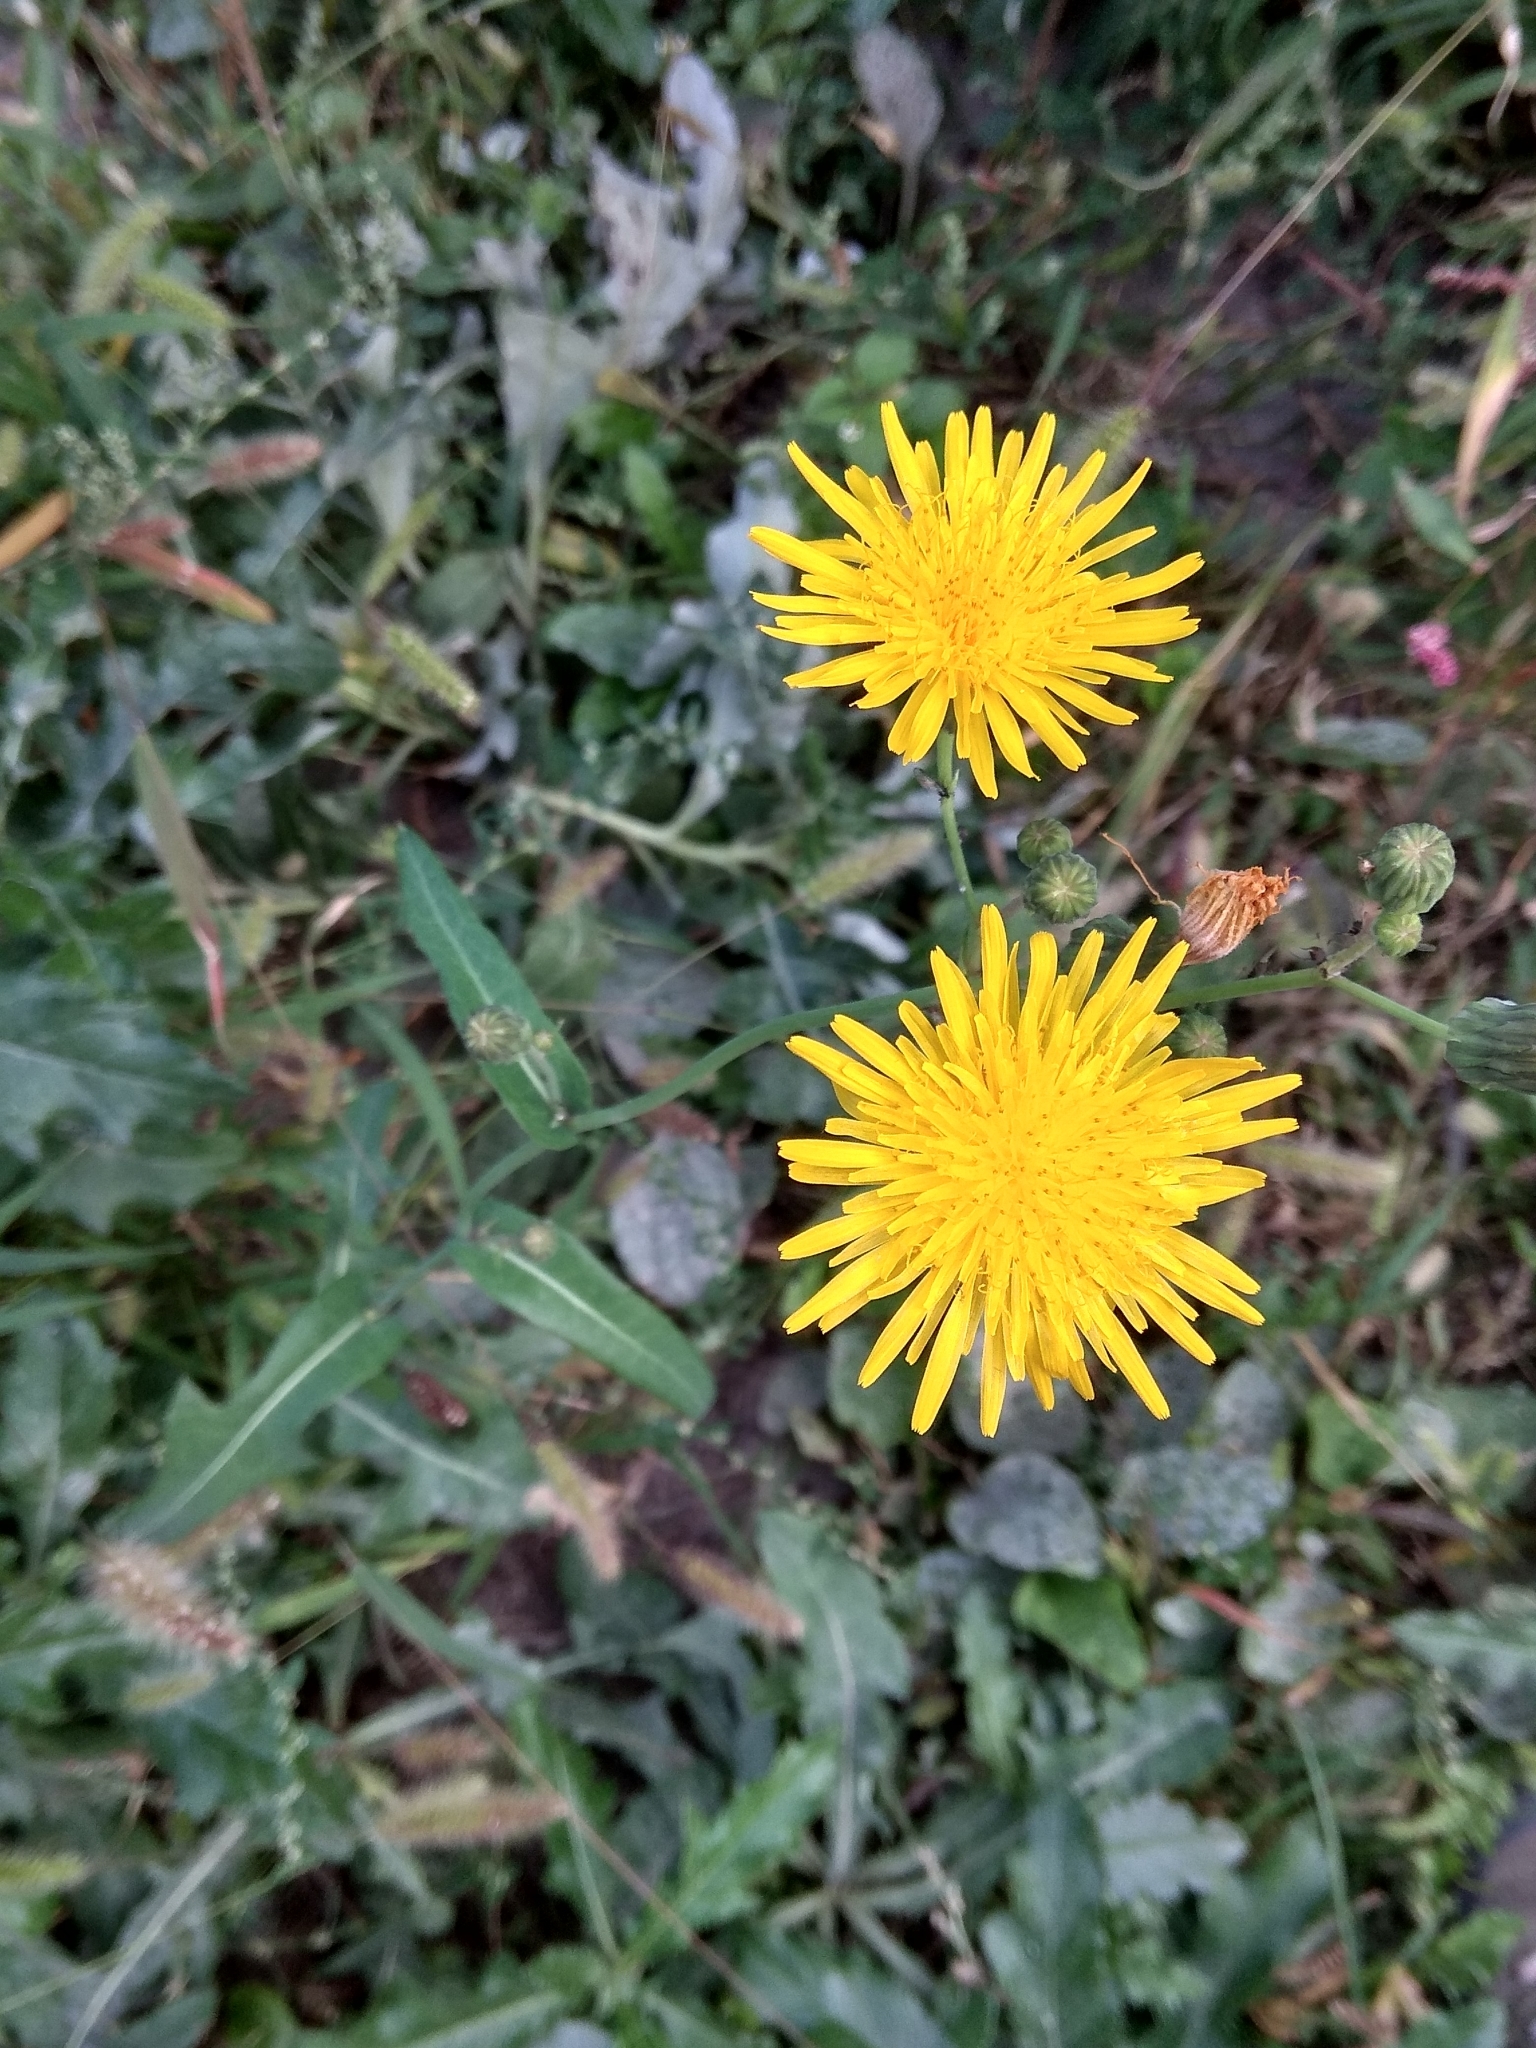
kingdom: Plantae
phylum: Tracheophyta
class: Magnoliopsida
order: Asterales
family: Asteraceae
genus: Sonchus
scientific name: Sonchus arvensis
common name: Perennial sow-thistle
